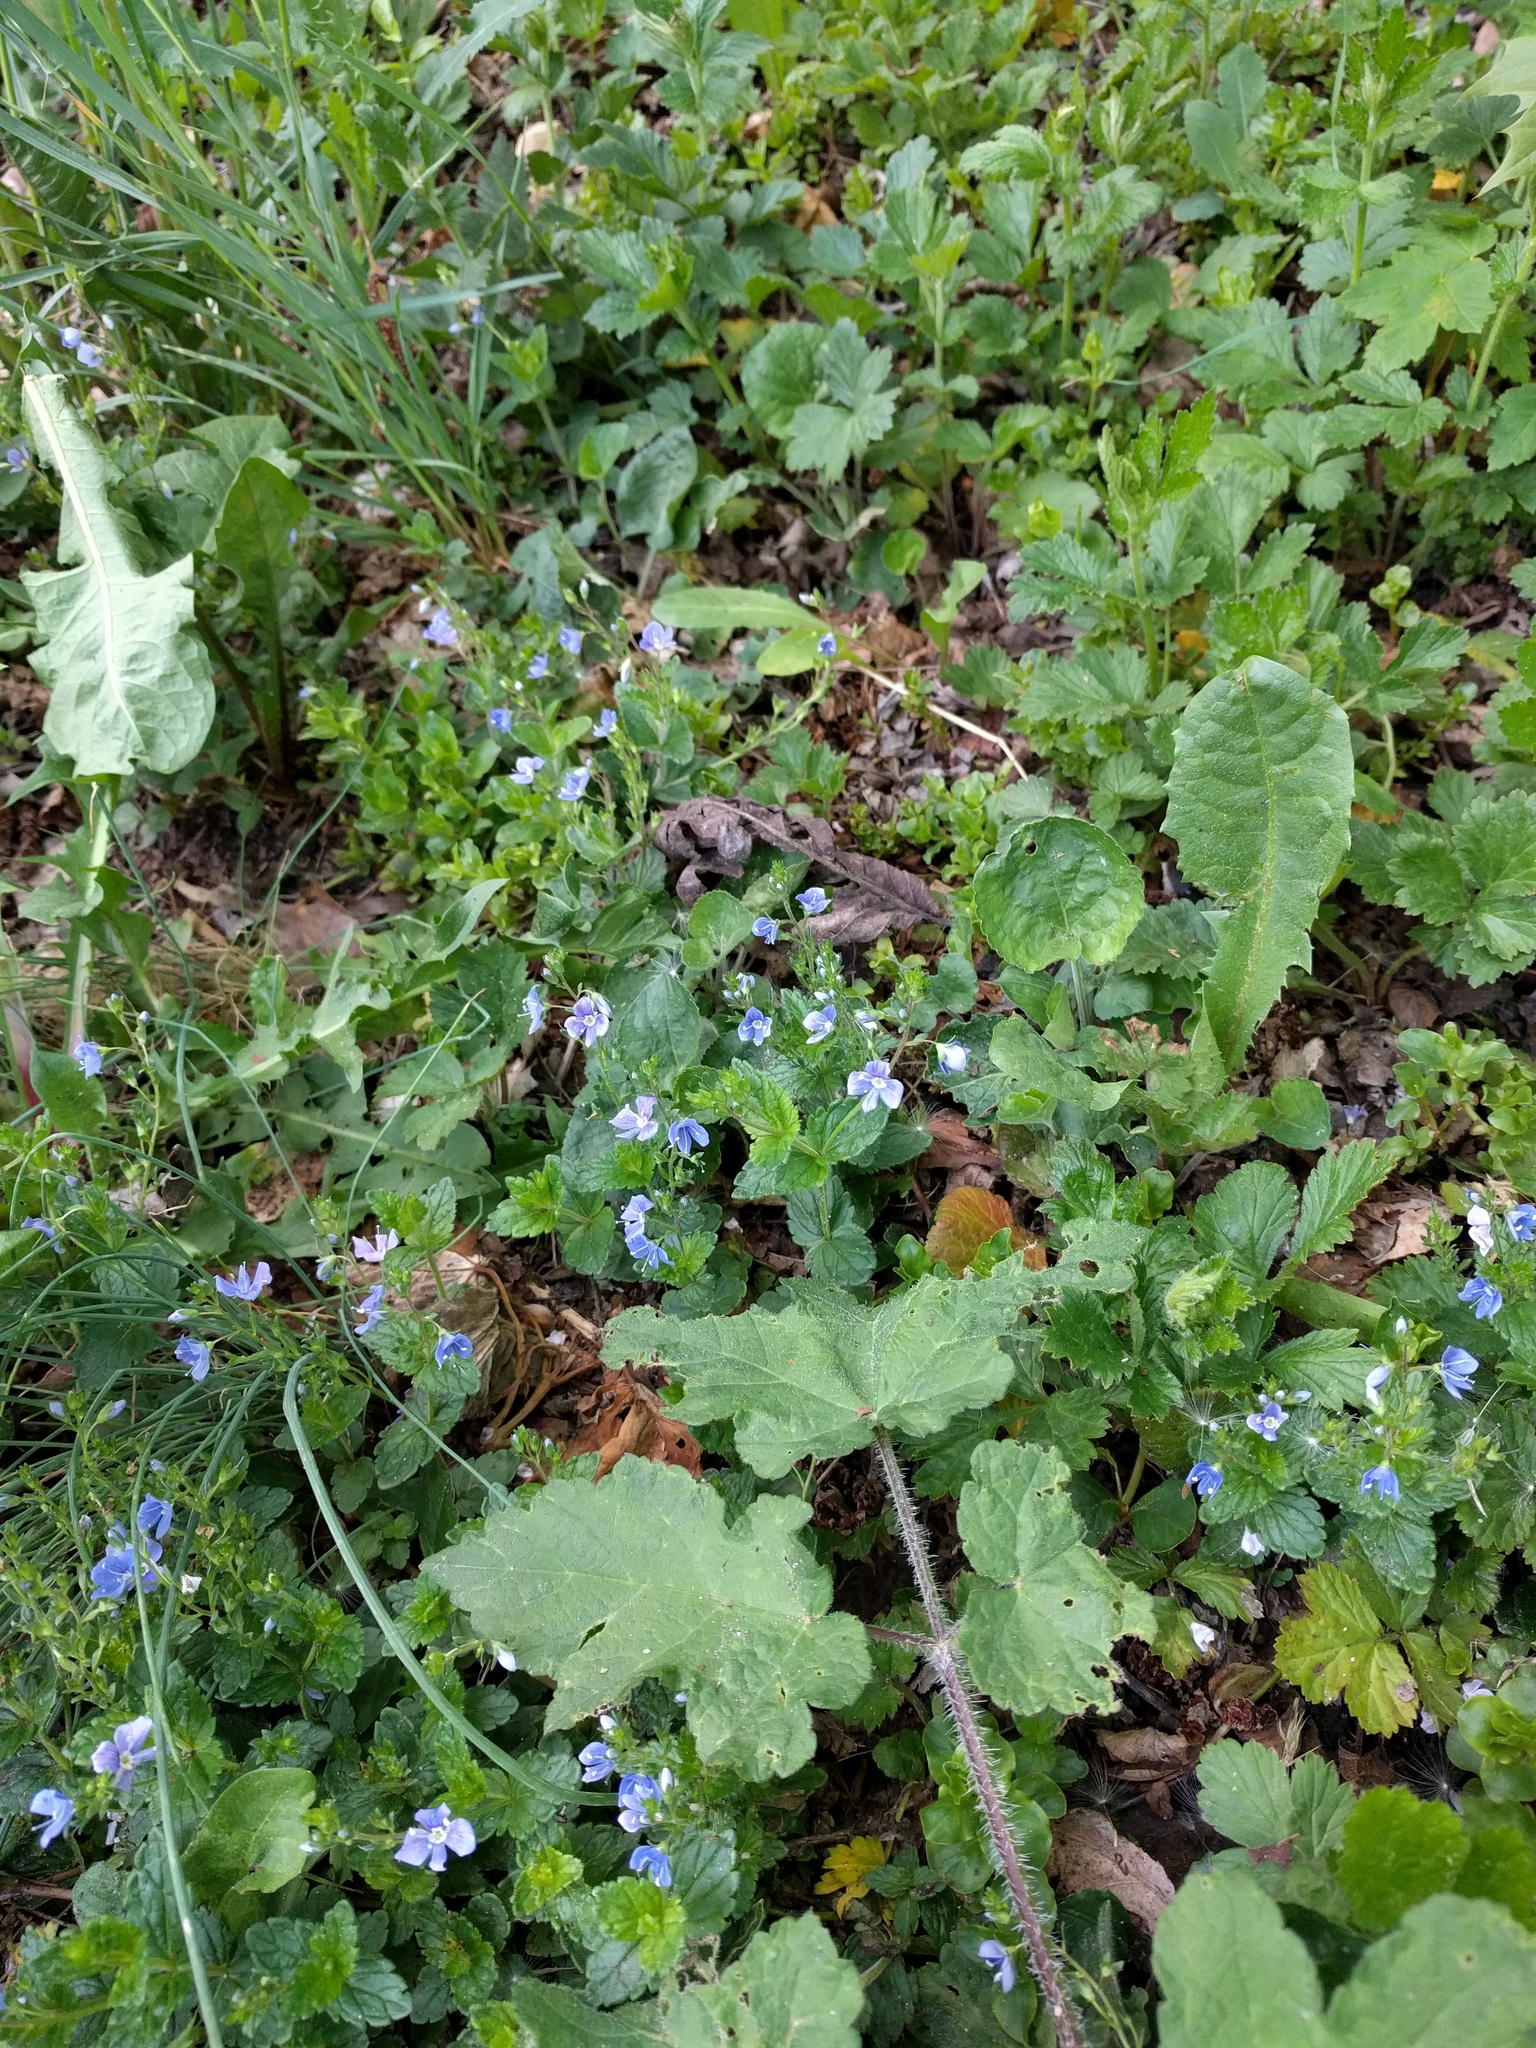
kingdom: Plantae
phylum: Tracheophyta
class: Magnoliopsida
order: Lamiales
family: Plantaginaceae
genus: Veronica
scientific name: Veronica chamaedrys
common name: Germander speedwell
